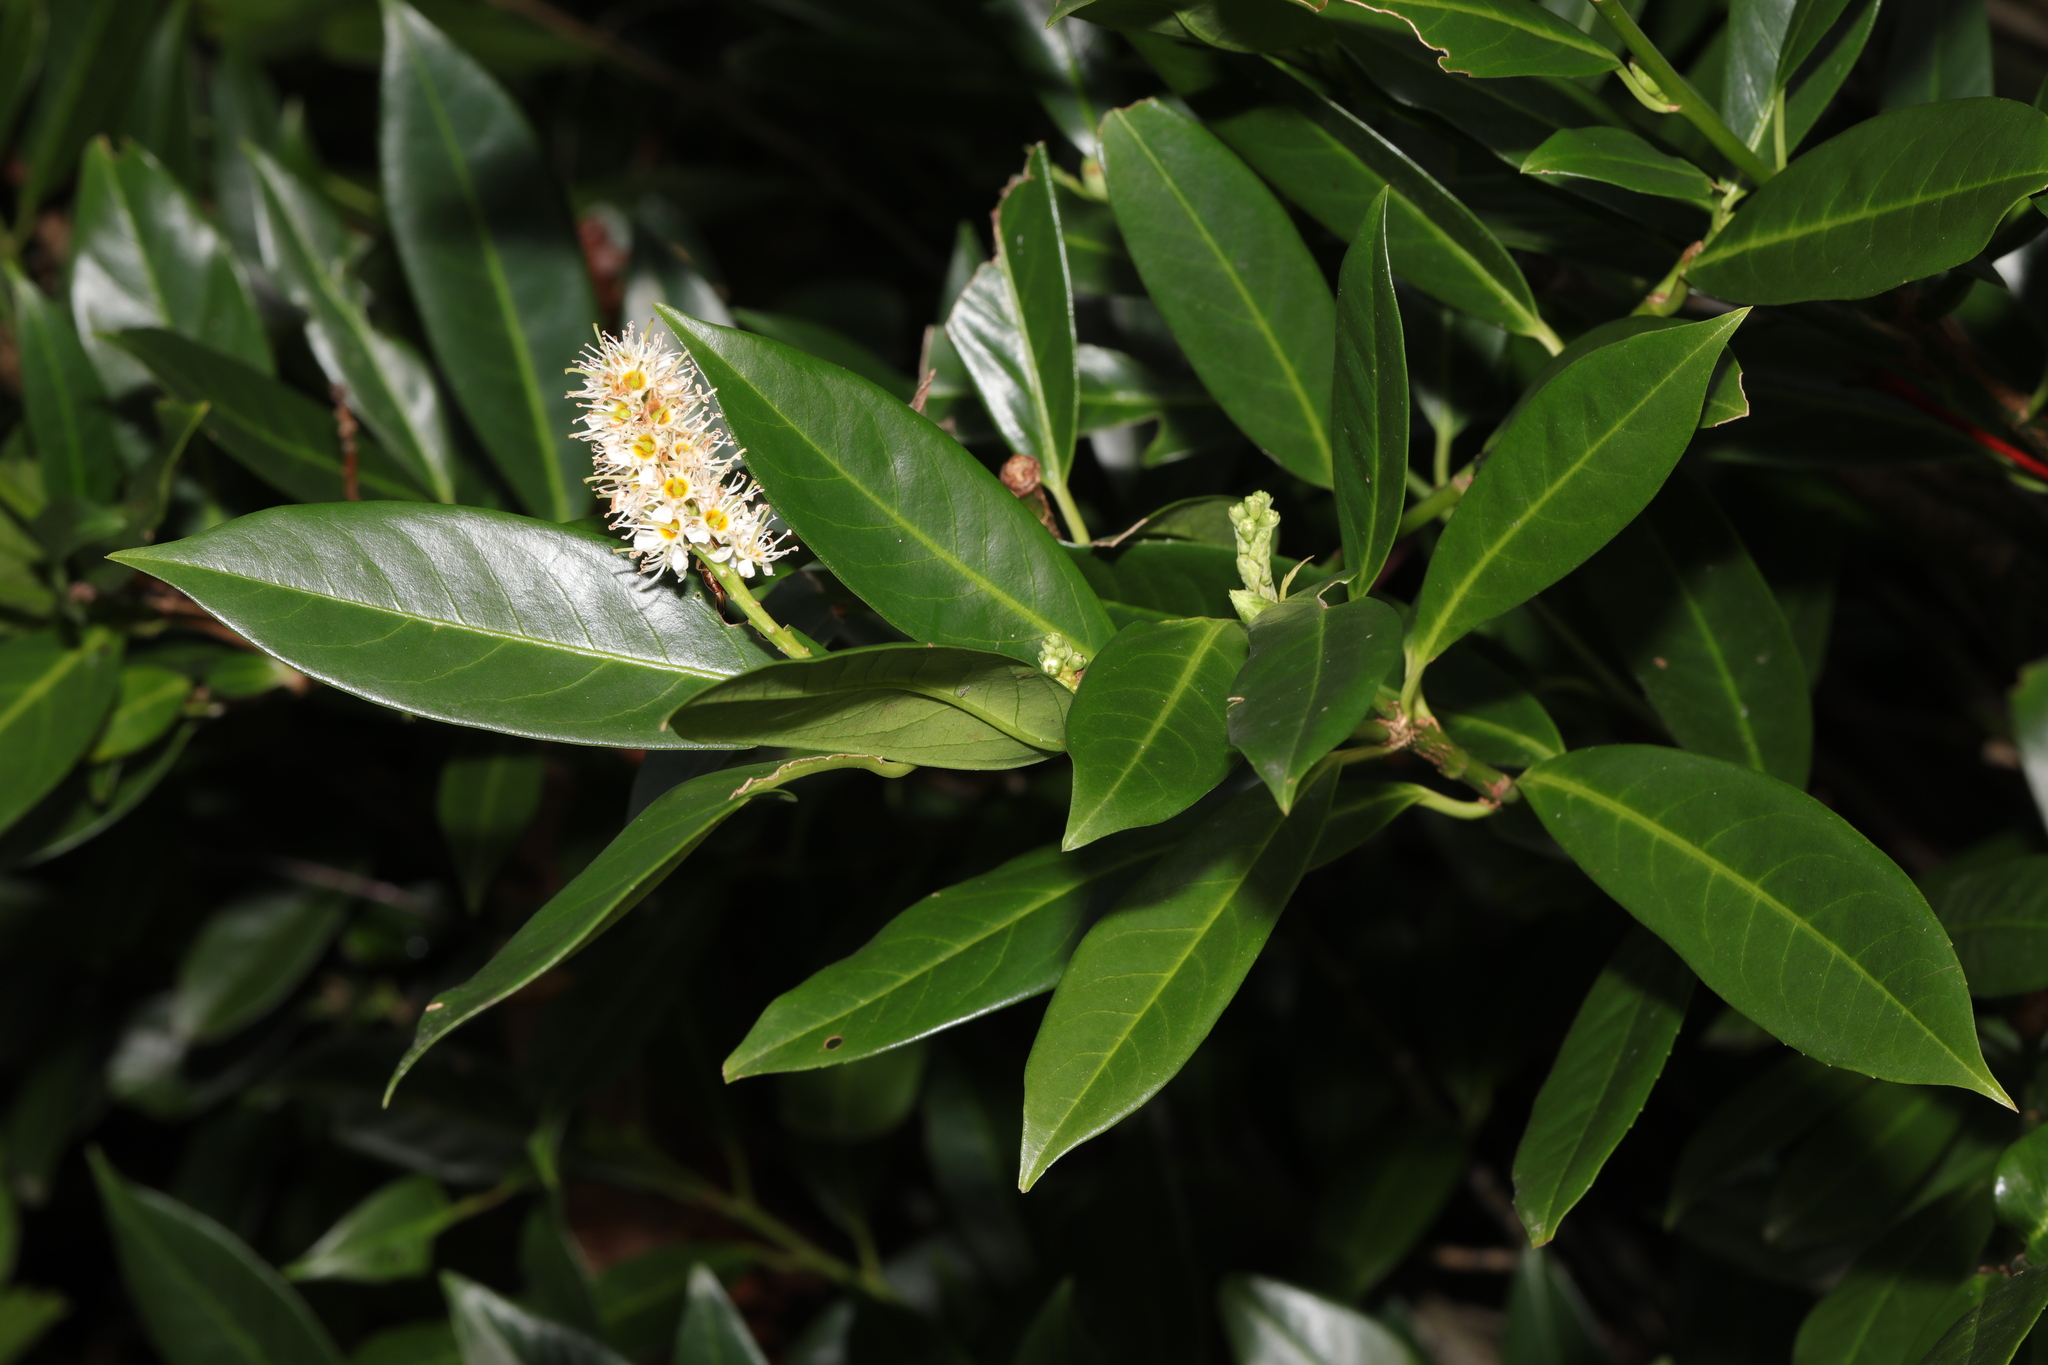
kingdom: Plantae
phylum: Tracheophyta
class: Magnoliopsida
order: Rosales
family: Rosaceae
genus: Prunus
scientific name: Prunus laurocerasus
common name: Cherry laurel
